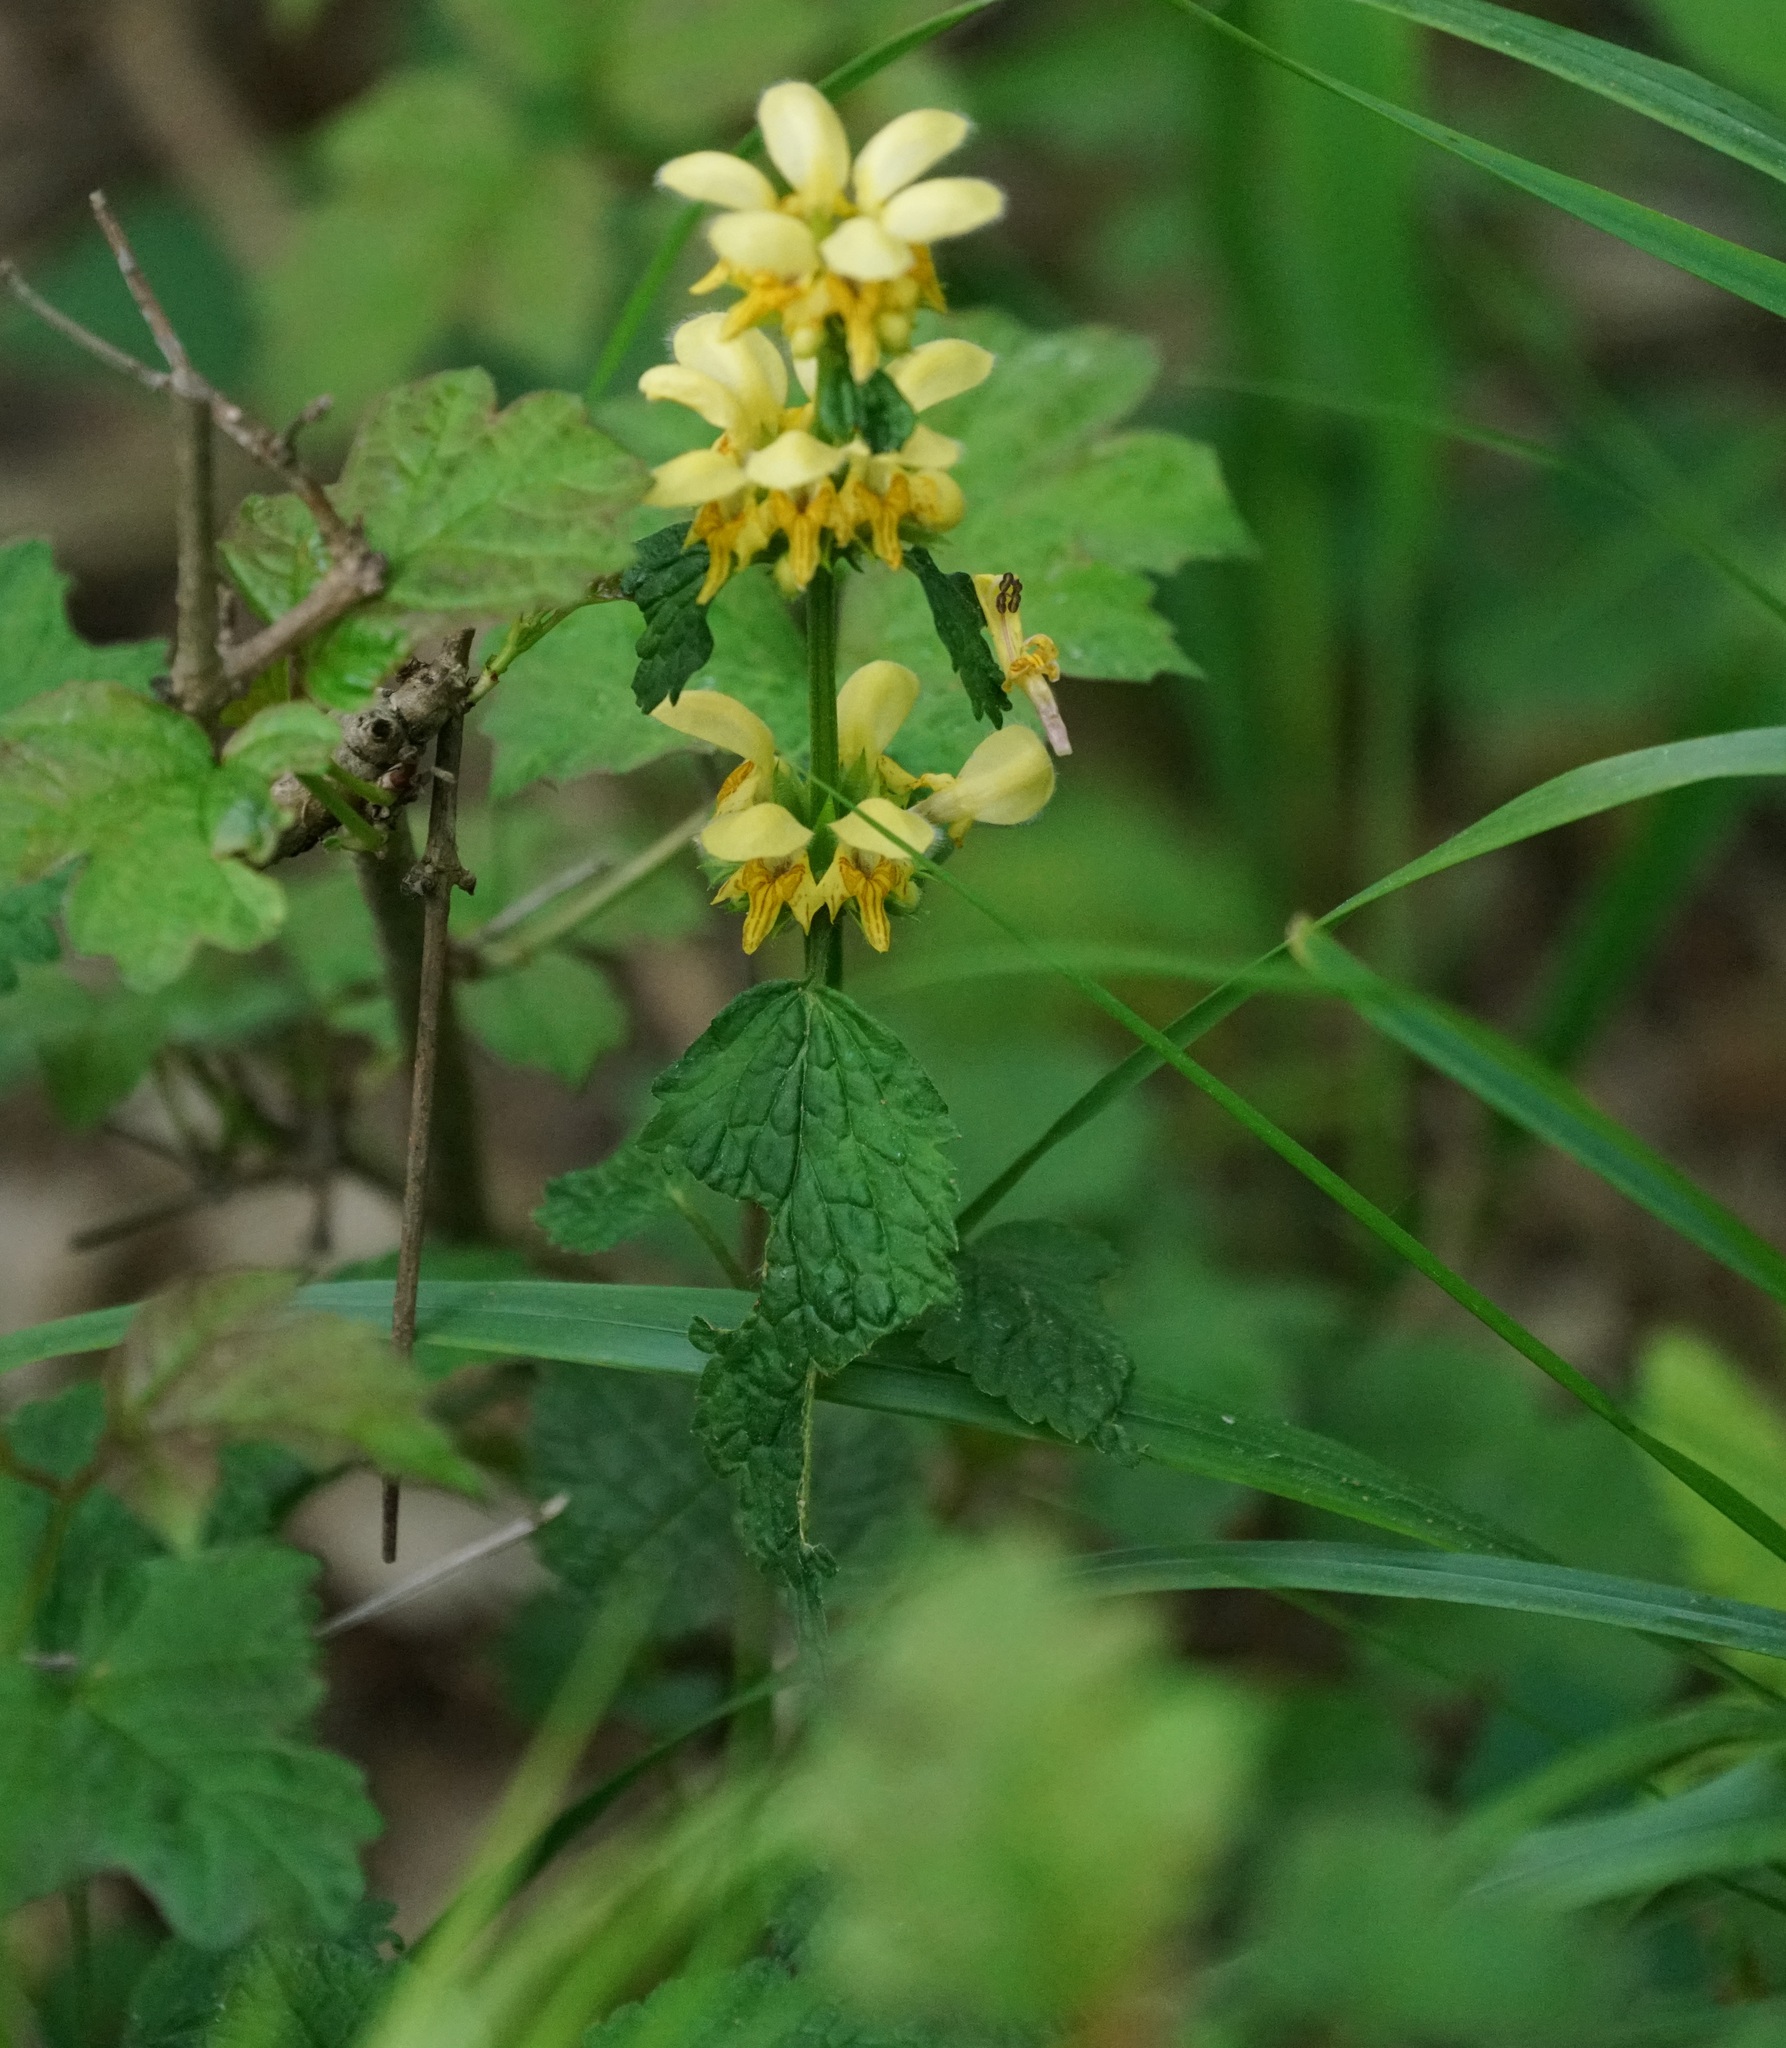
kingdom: Plantae
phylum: Tracheophyta
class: Magnoliopsida
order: Lamiales
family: Lamiaceae
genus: Lamium
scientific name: Lamium galeobdolon
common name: Yellow archangel
